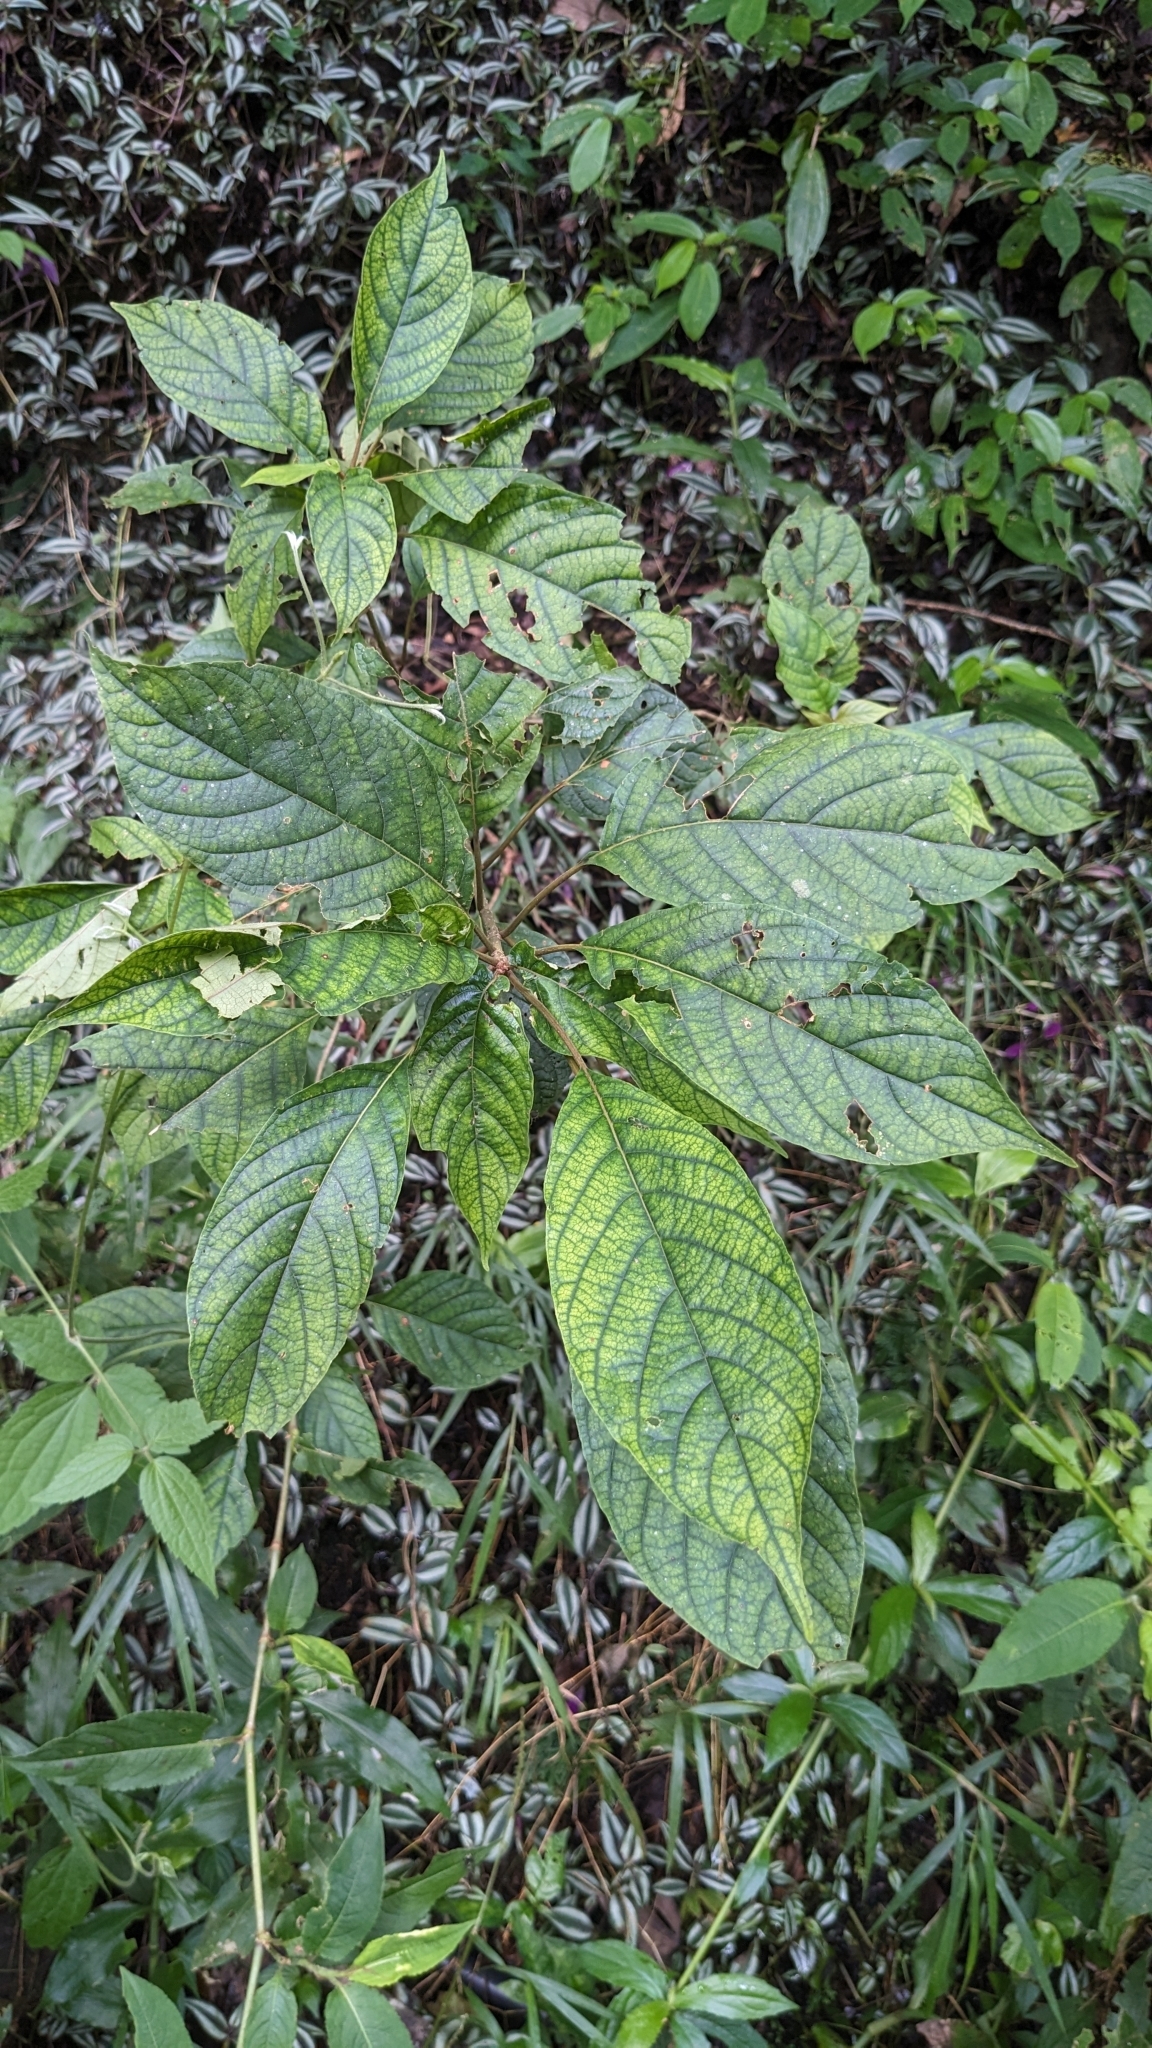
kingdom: Plantae
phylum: Tracheophyta
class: Magnoliopsida
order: Gentianales
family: Rubiaceae
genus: Adina
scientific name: Adina racemosa
